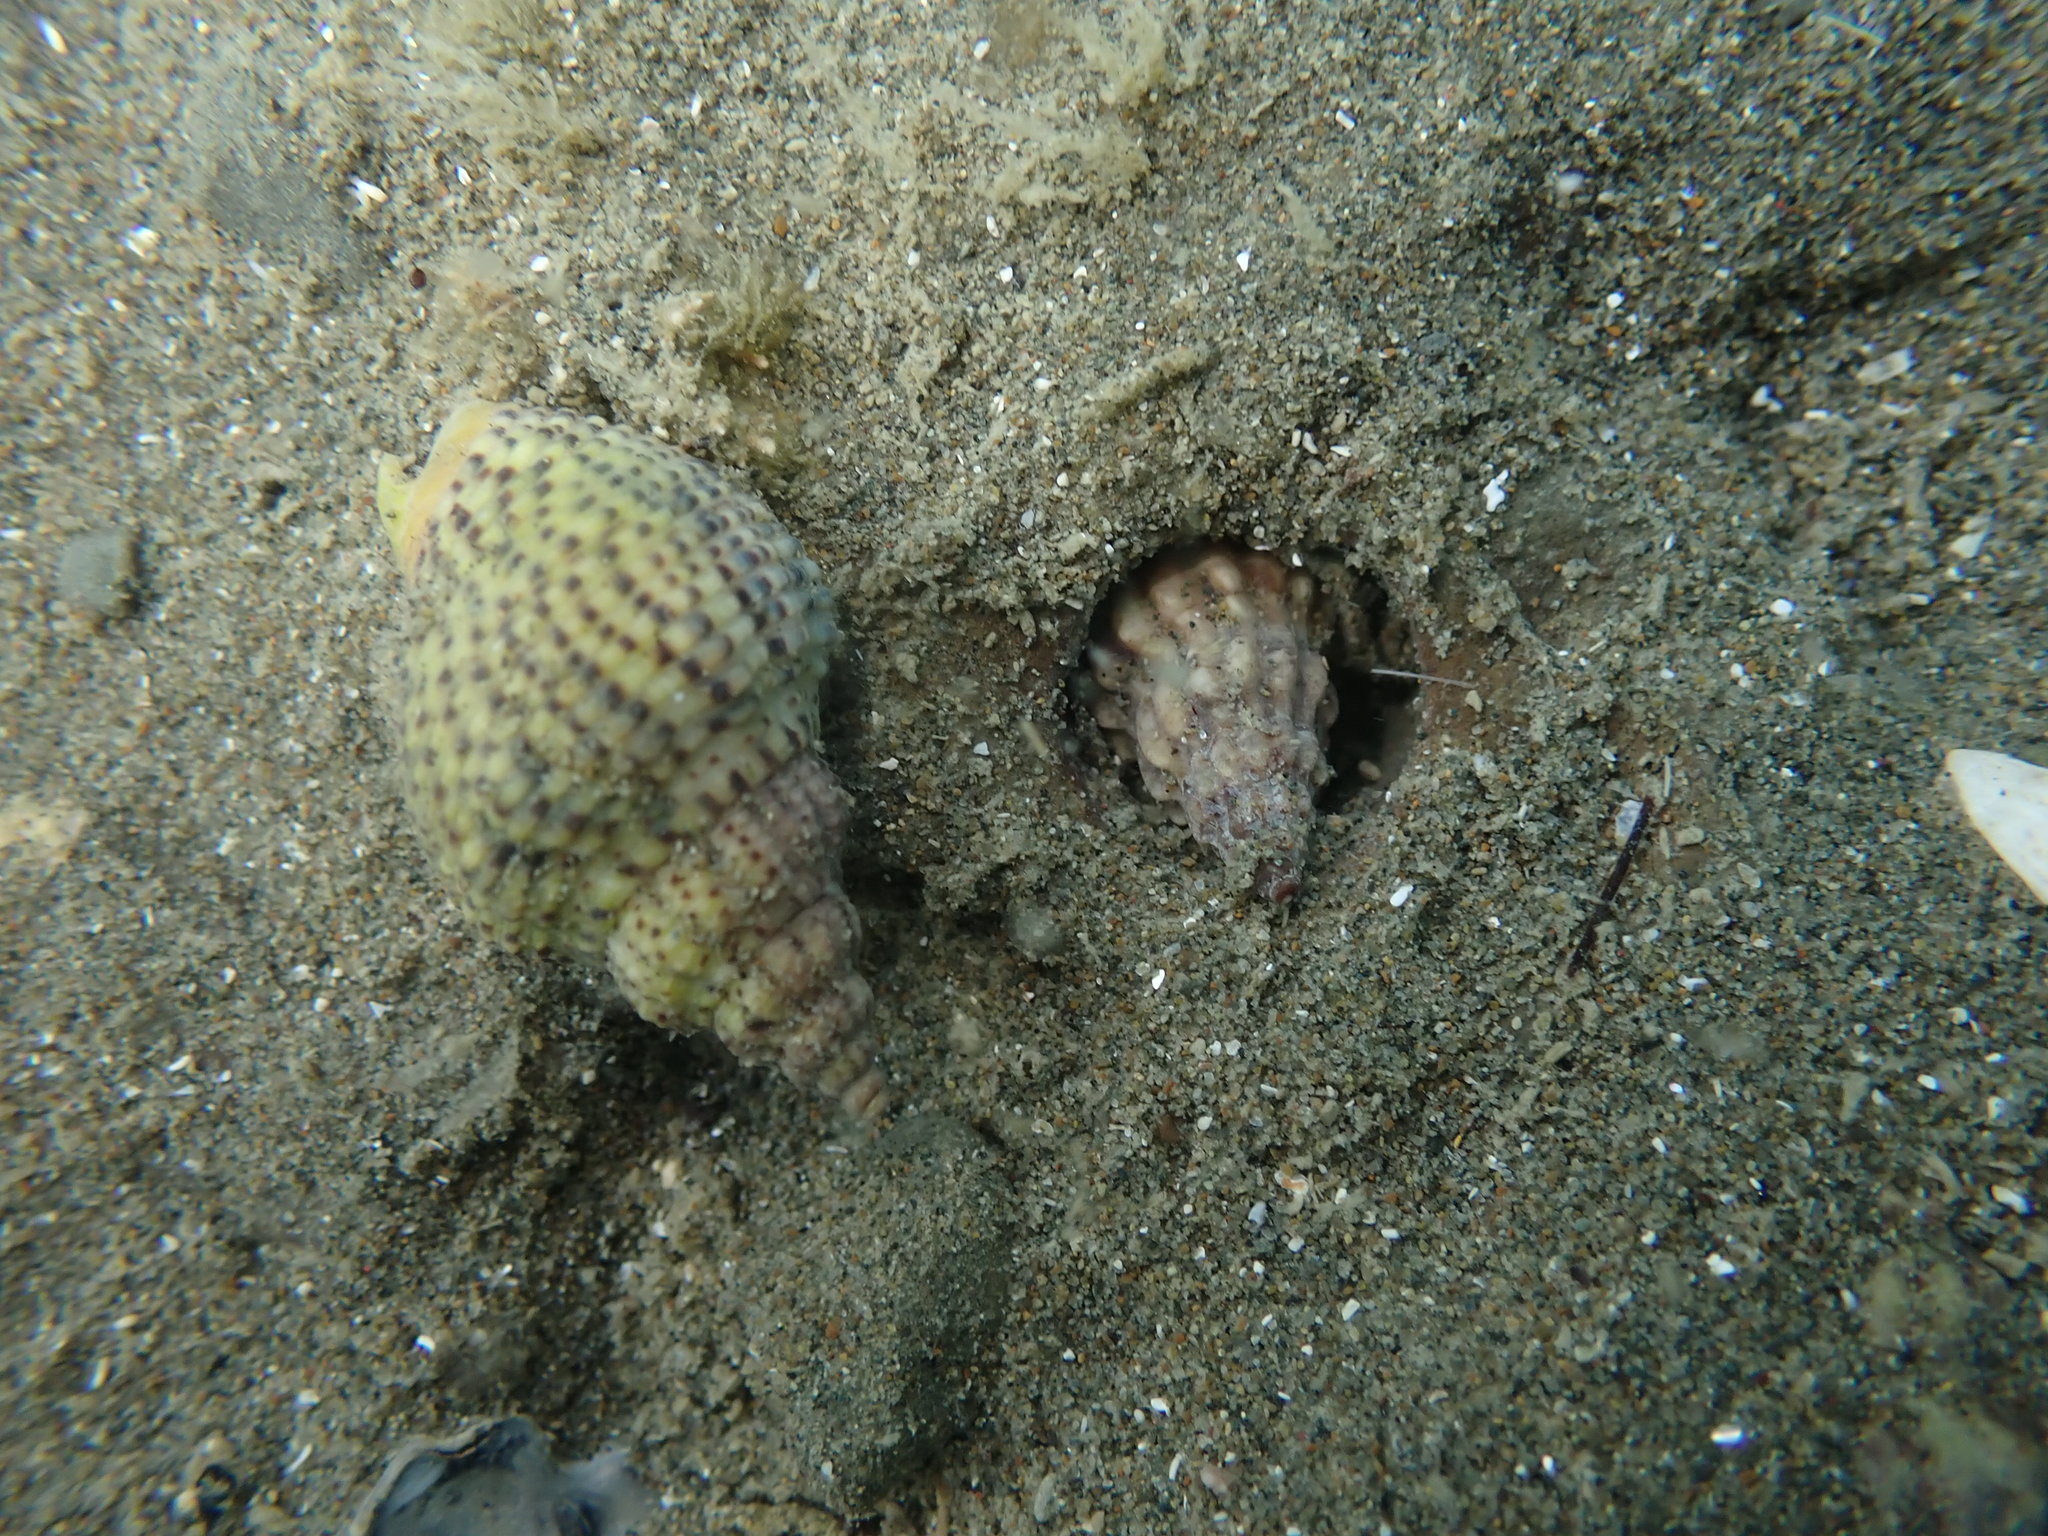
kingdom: Animalia
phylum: Mollusca
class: Gastropoda
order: Neogastropoda
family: Cominellidae
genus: Cominella
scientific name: Cominella adspersa
